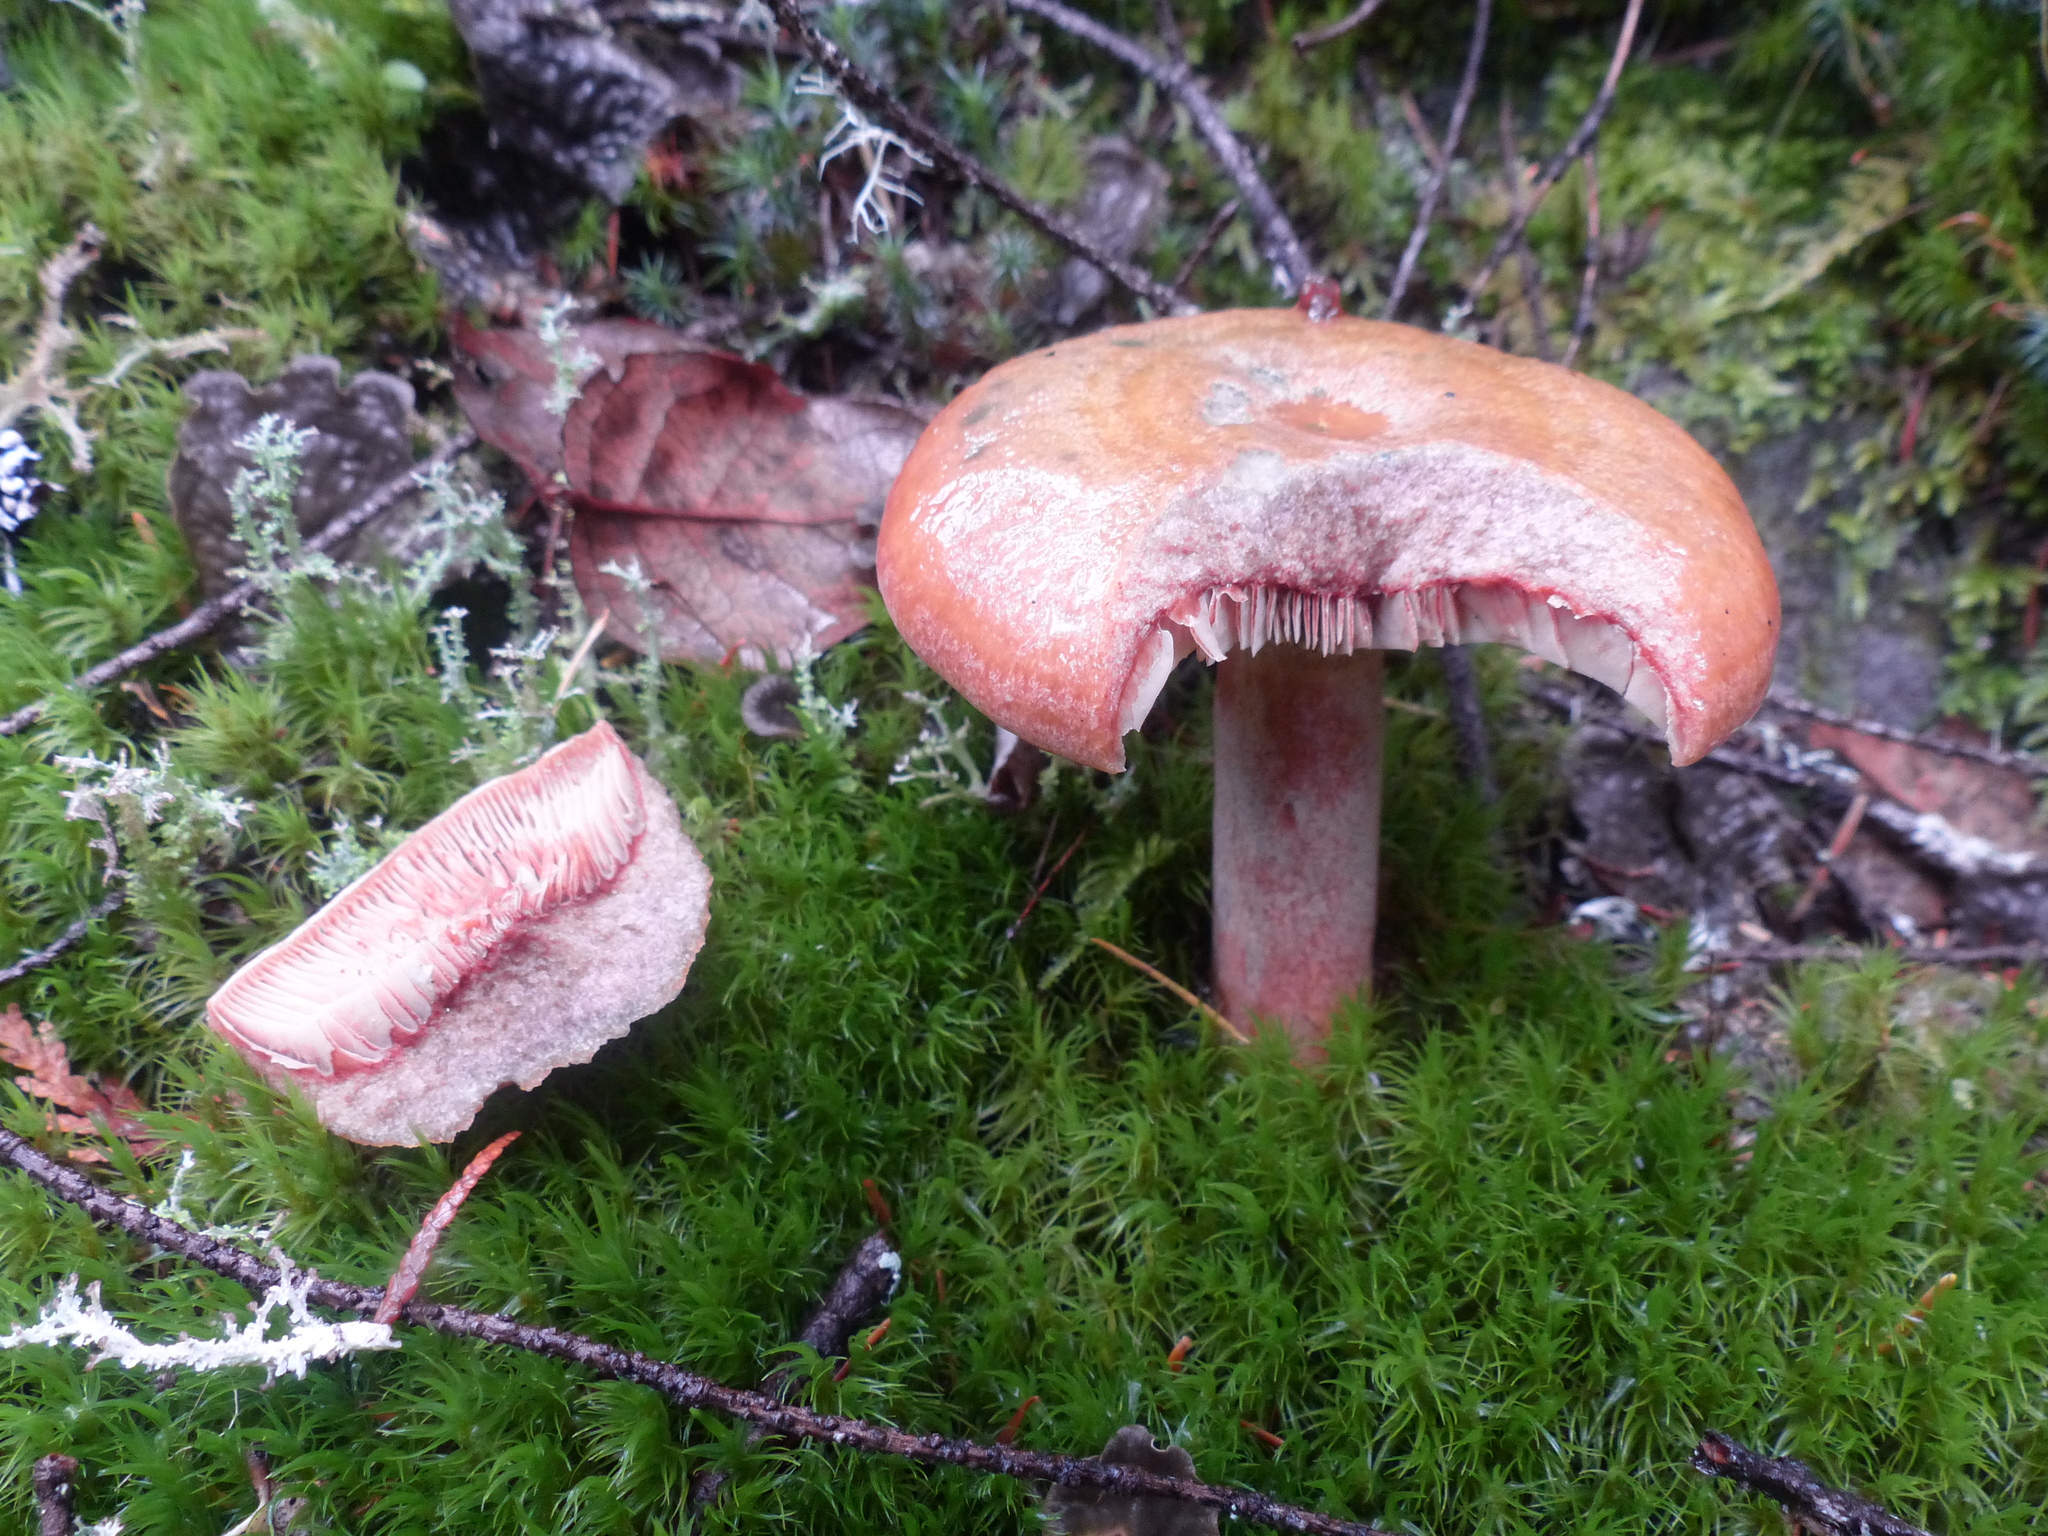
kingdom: Fungi
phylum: Basidiomycota
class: Agaricomycetes
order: Russulales
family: Russulaceae
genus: Lactarius
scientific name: Lactarius rubrilacteus
